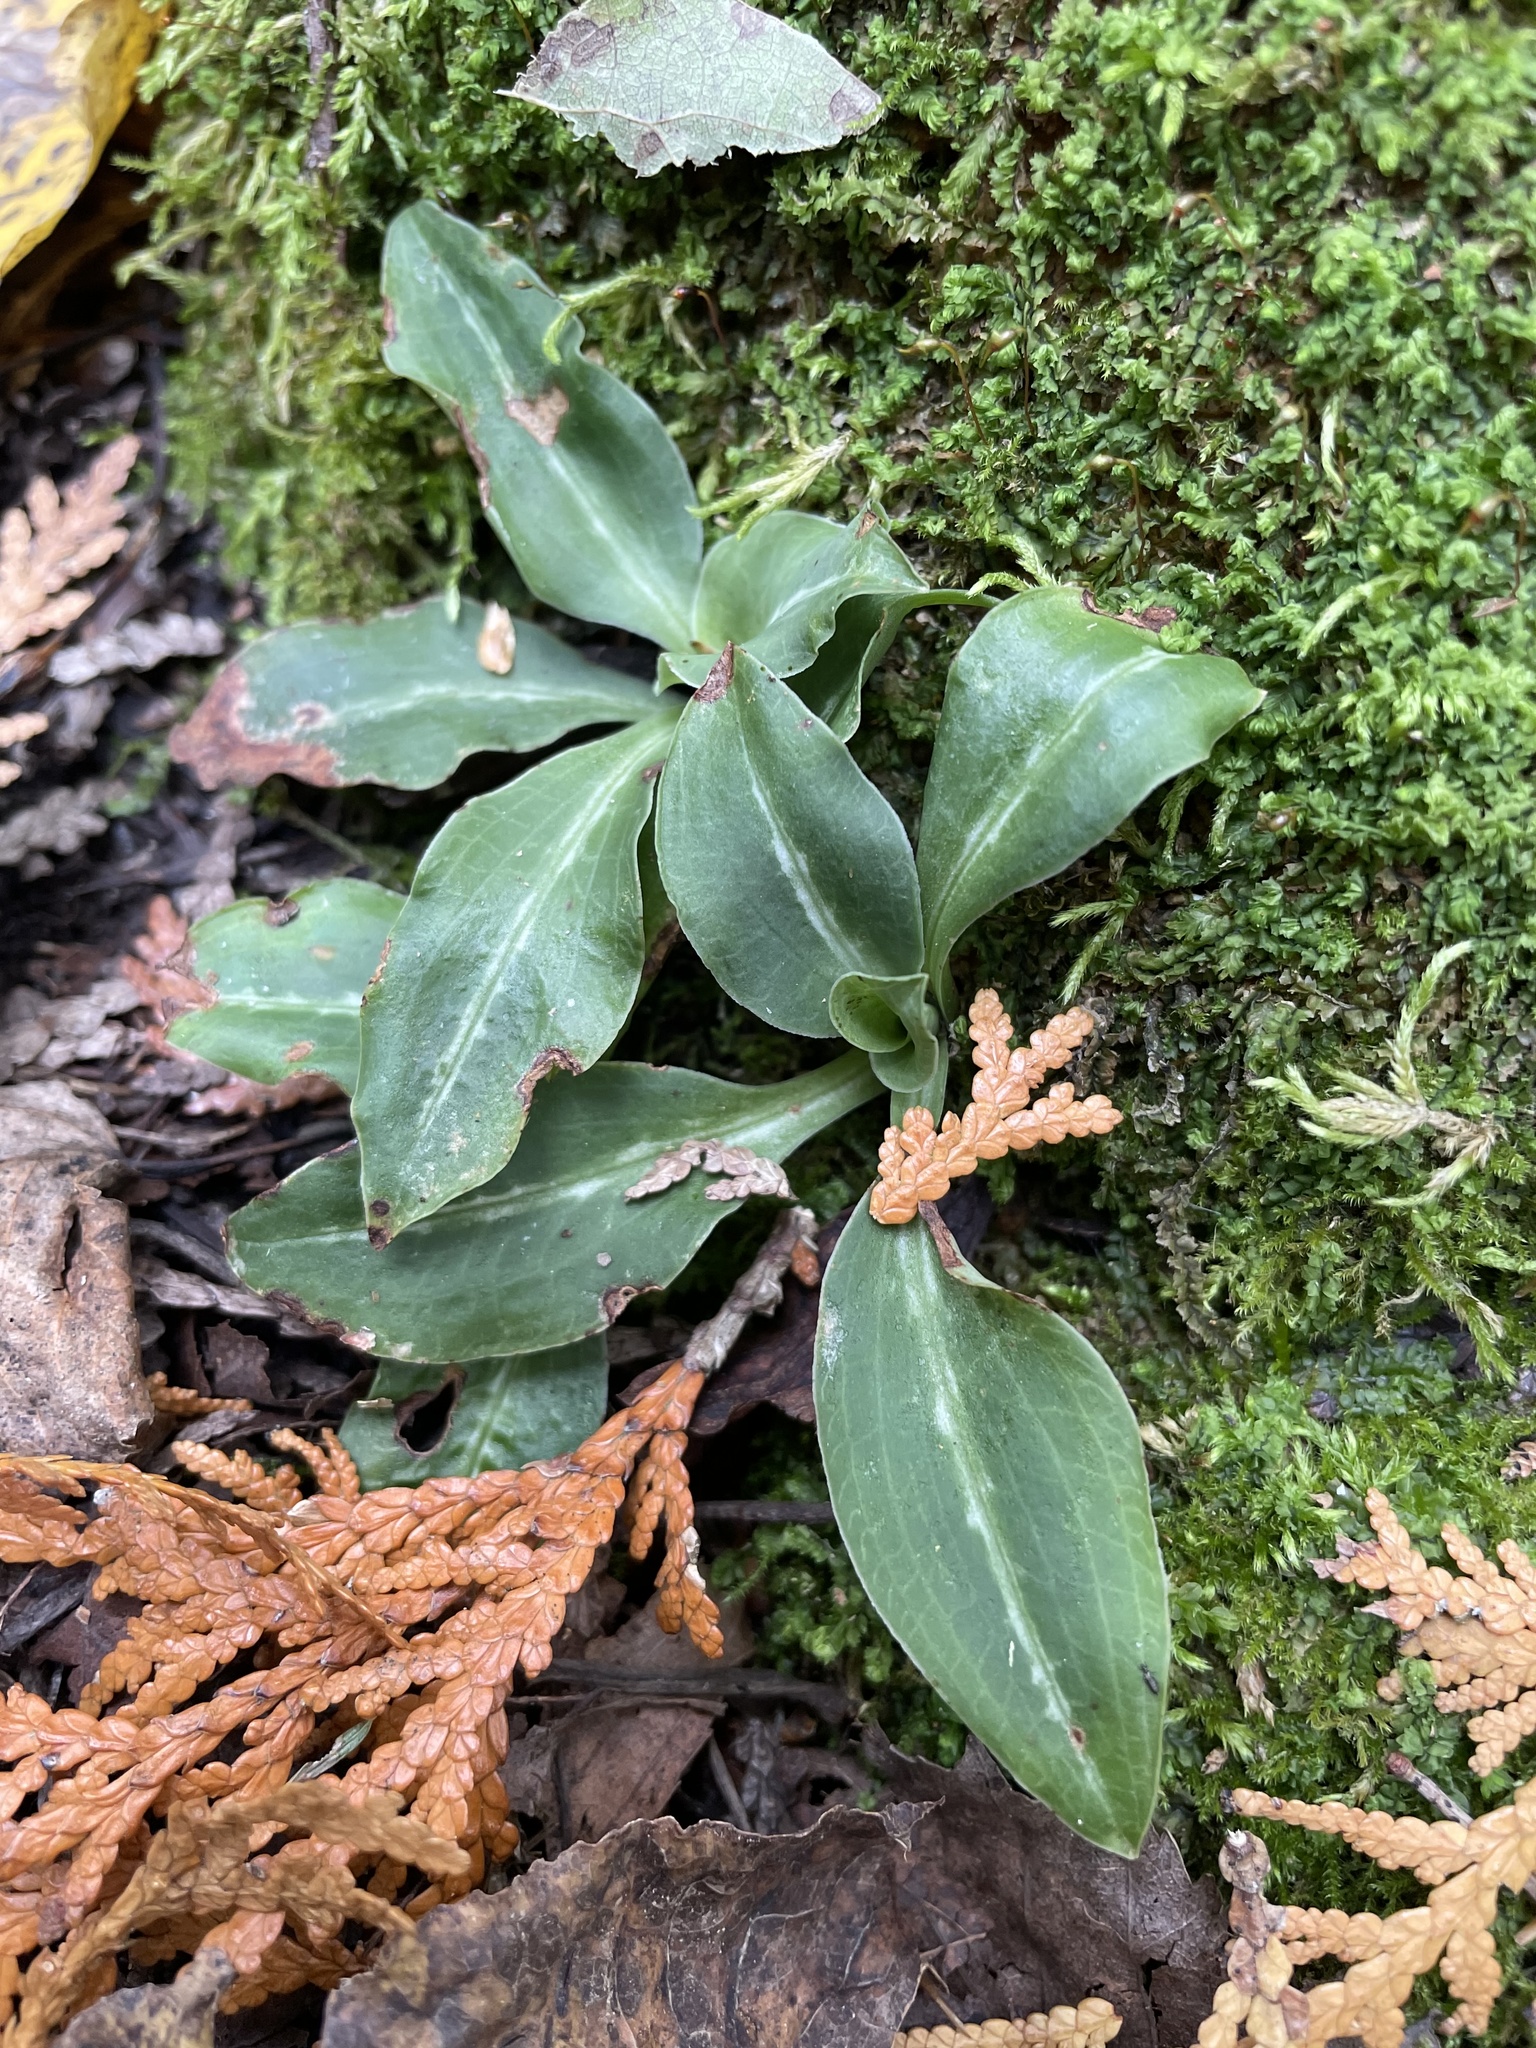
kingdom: Plantae
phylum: Tracheophyta
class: Liliopsida
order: Asparagales
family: Orchidaceae
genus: Goodyera
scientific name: Goodyera oblongifolia
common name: Giant rattlesnake-plantain
